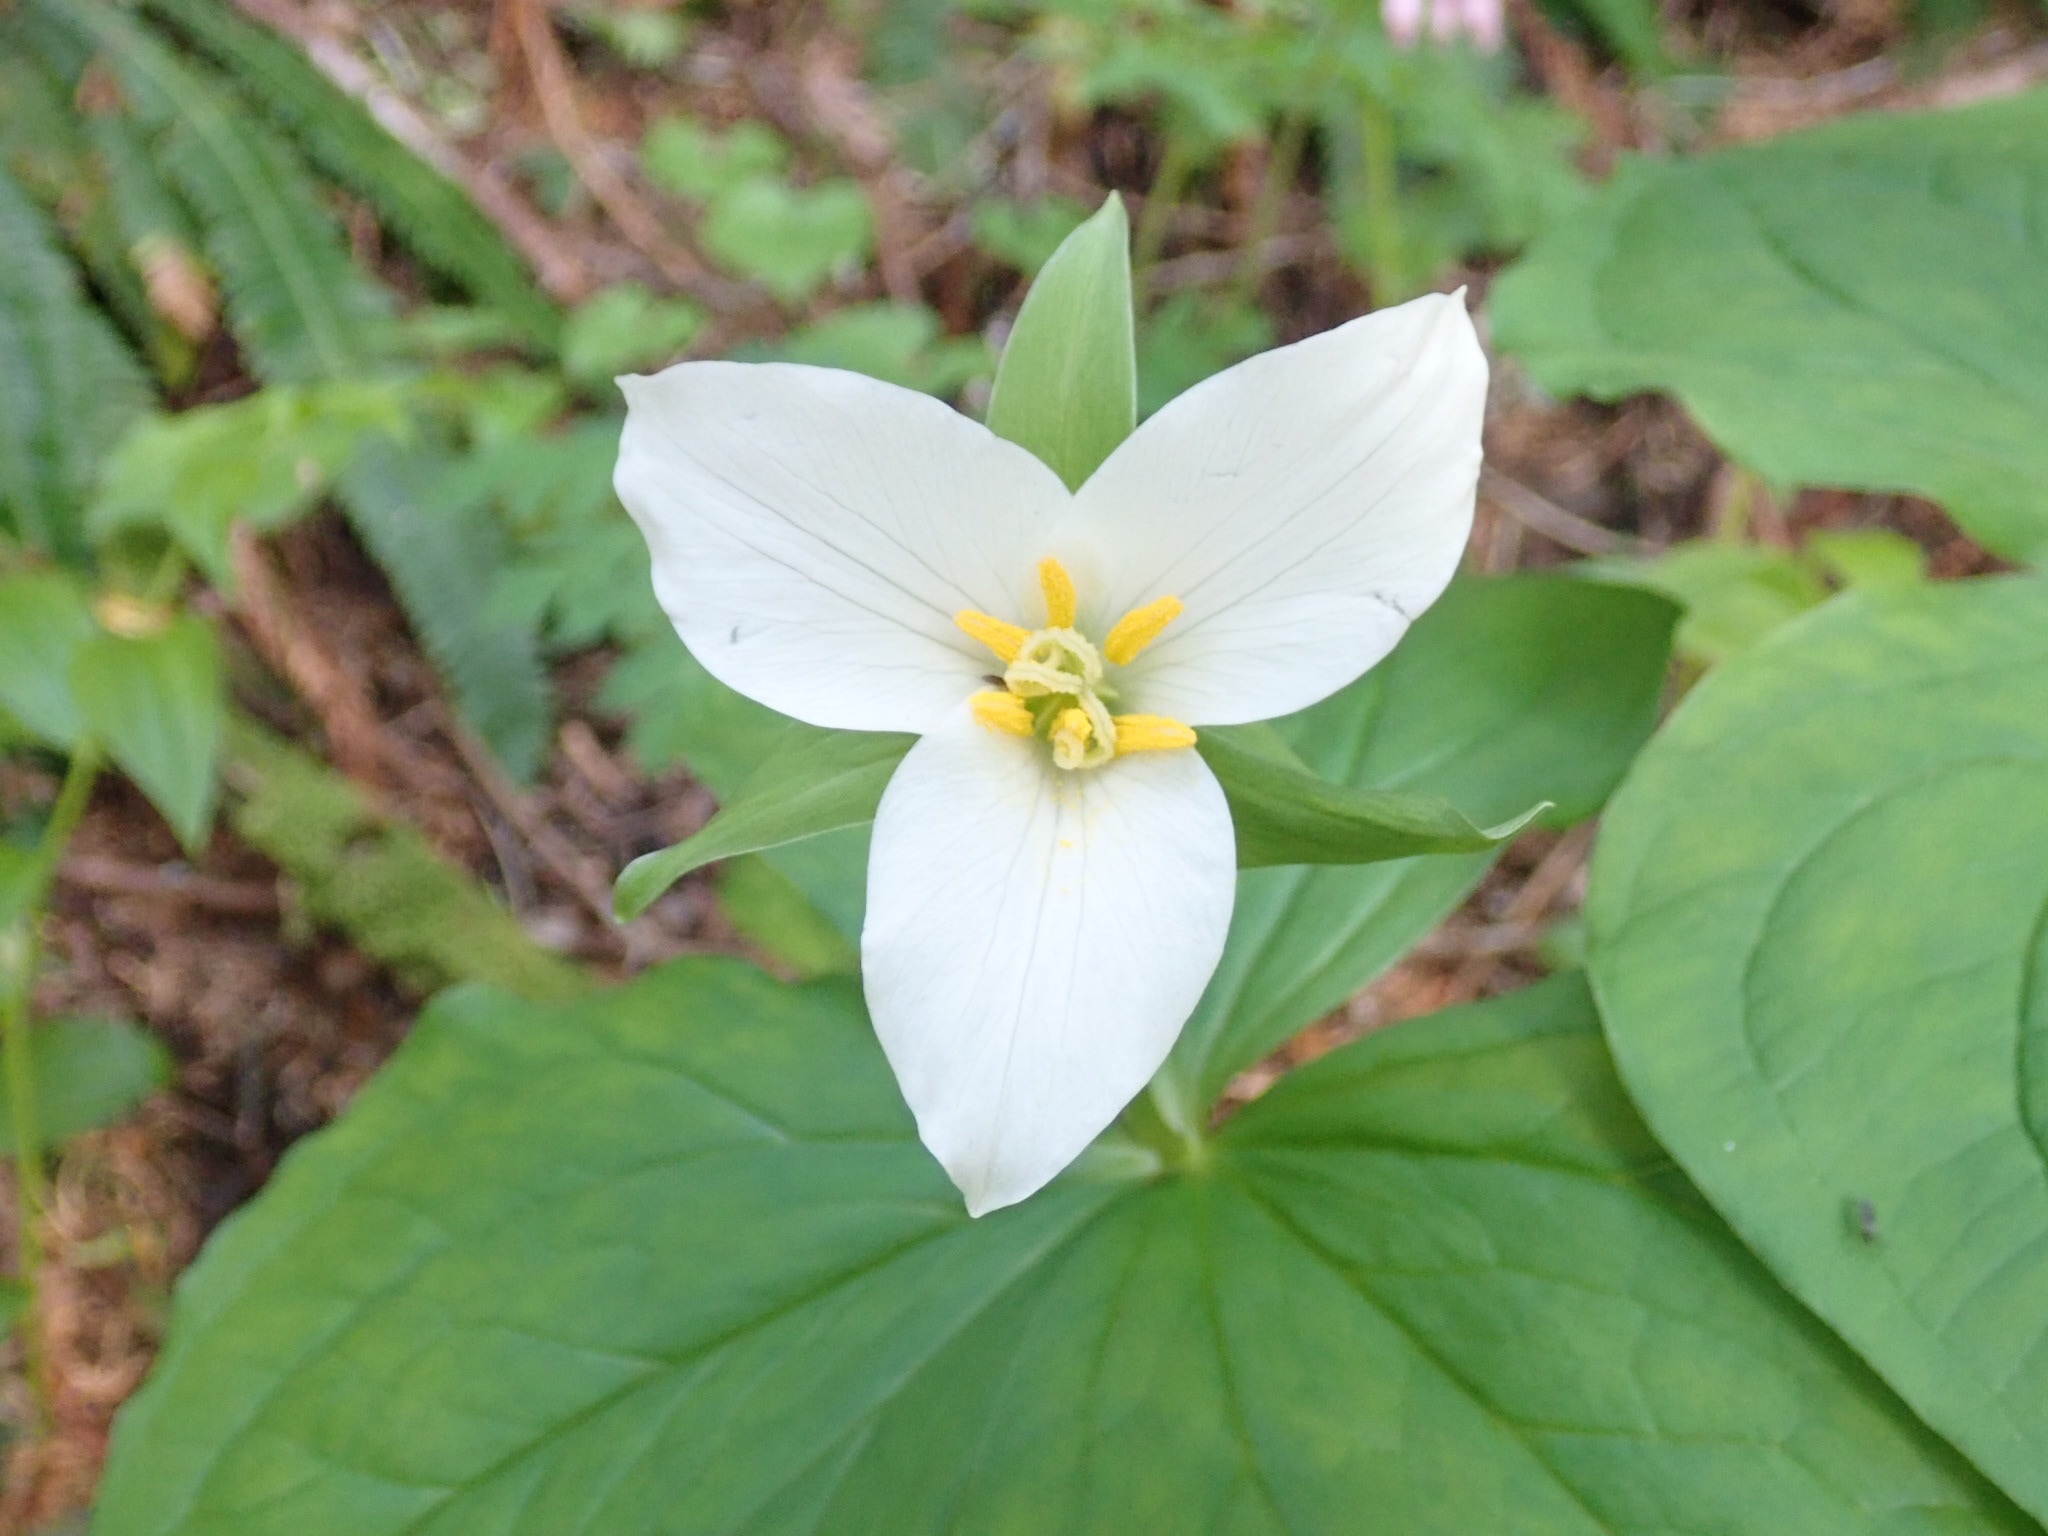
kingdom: Plantae
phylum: Tracheophyta
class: Liliopsida
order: Liliales
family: Melanthiaceae
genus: Trillium
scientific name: Trillium ovatum
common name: Pacific trillium
